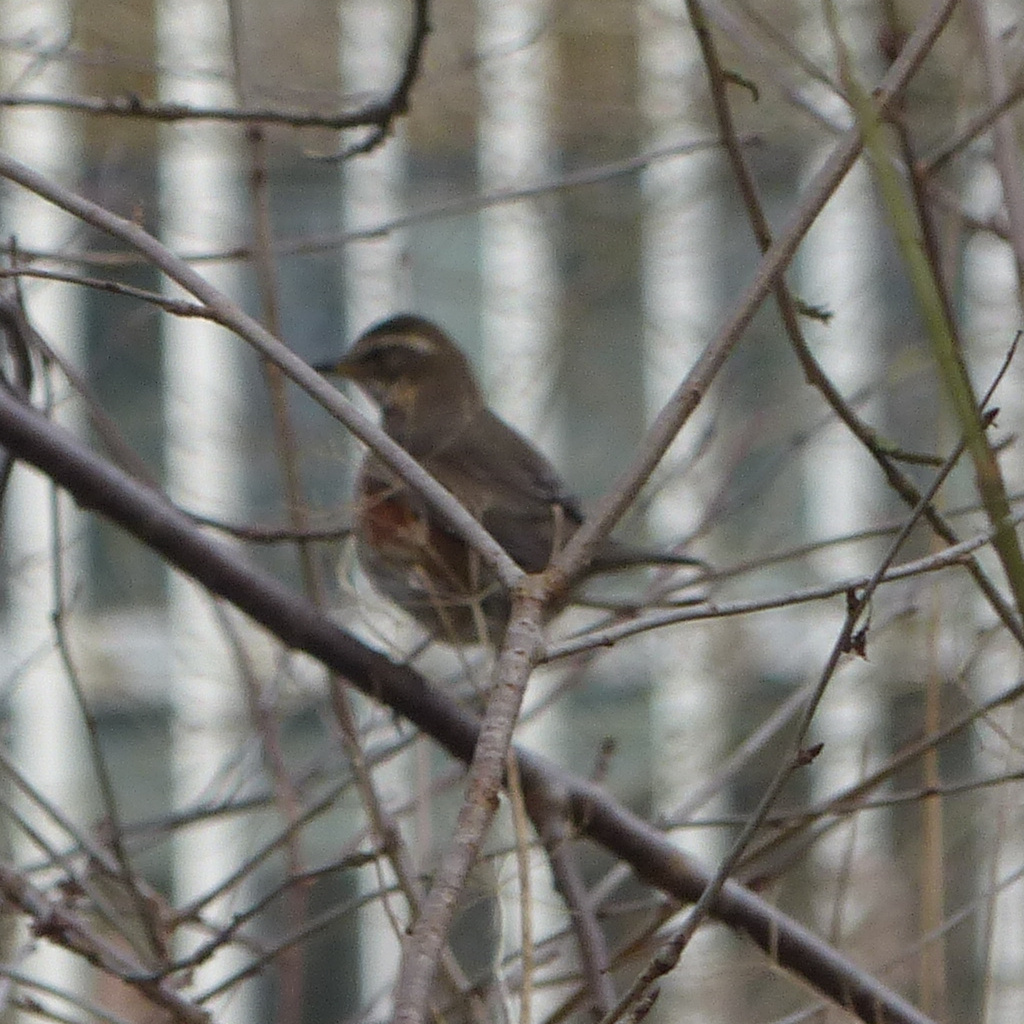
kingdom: Animalia
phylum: Chordata
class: Aves
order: Passeriformes
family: Turdidae
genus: Turdus
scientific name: Turdus iliacus
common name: Redwing
